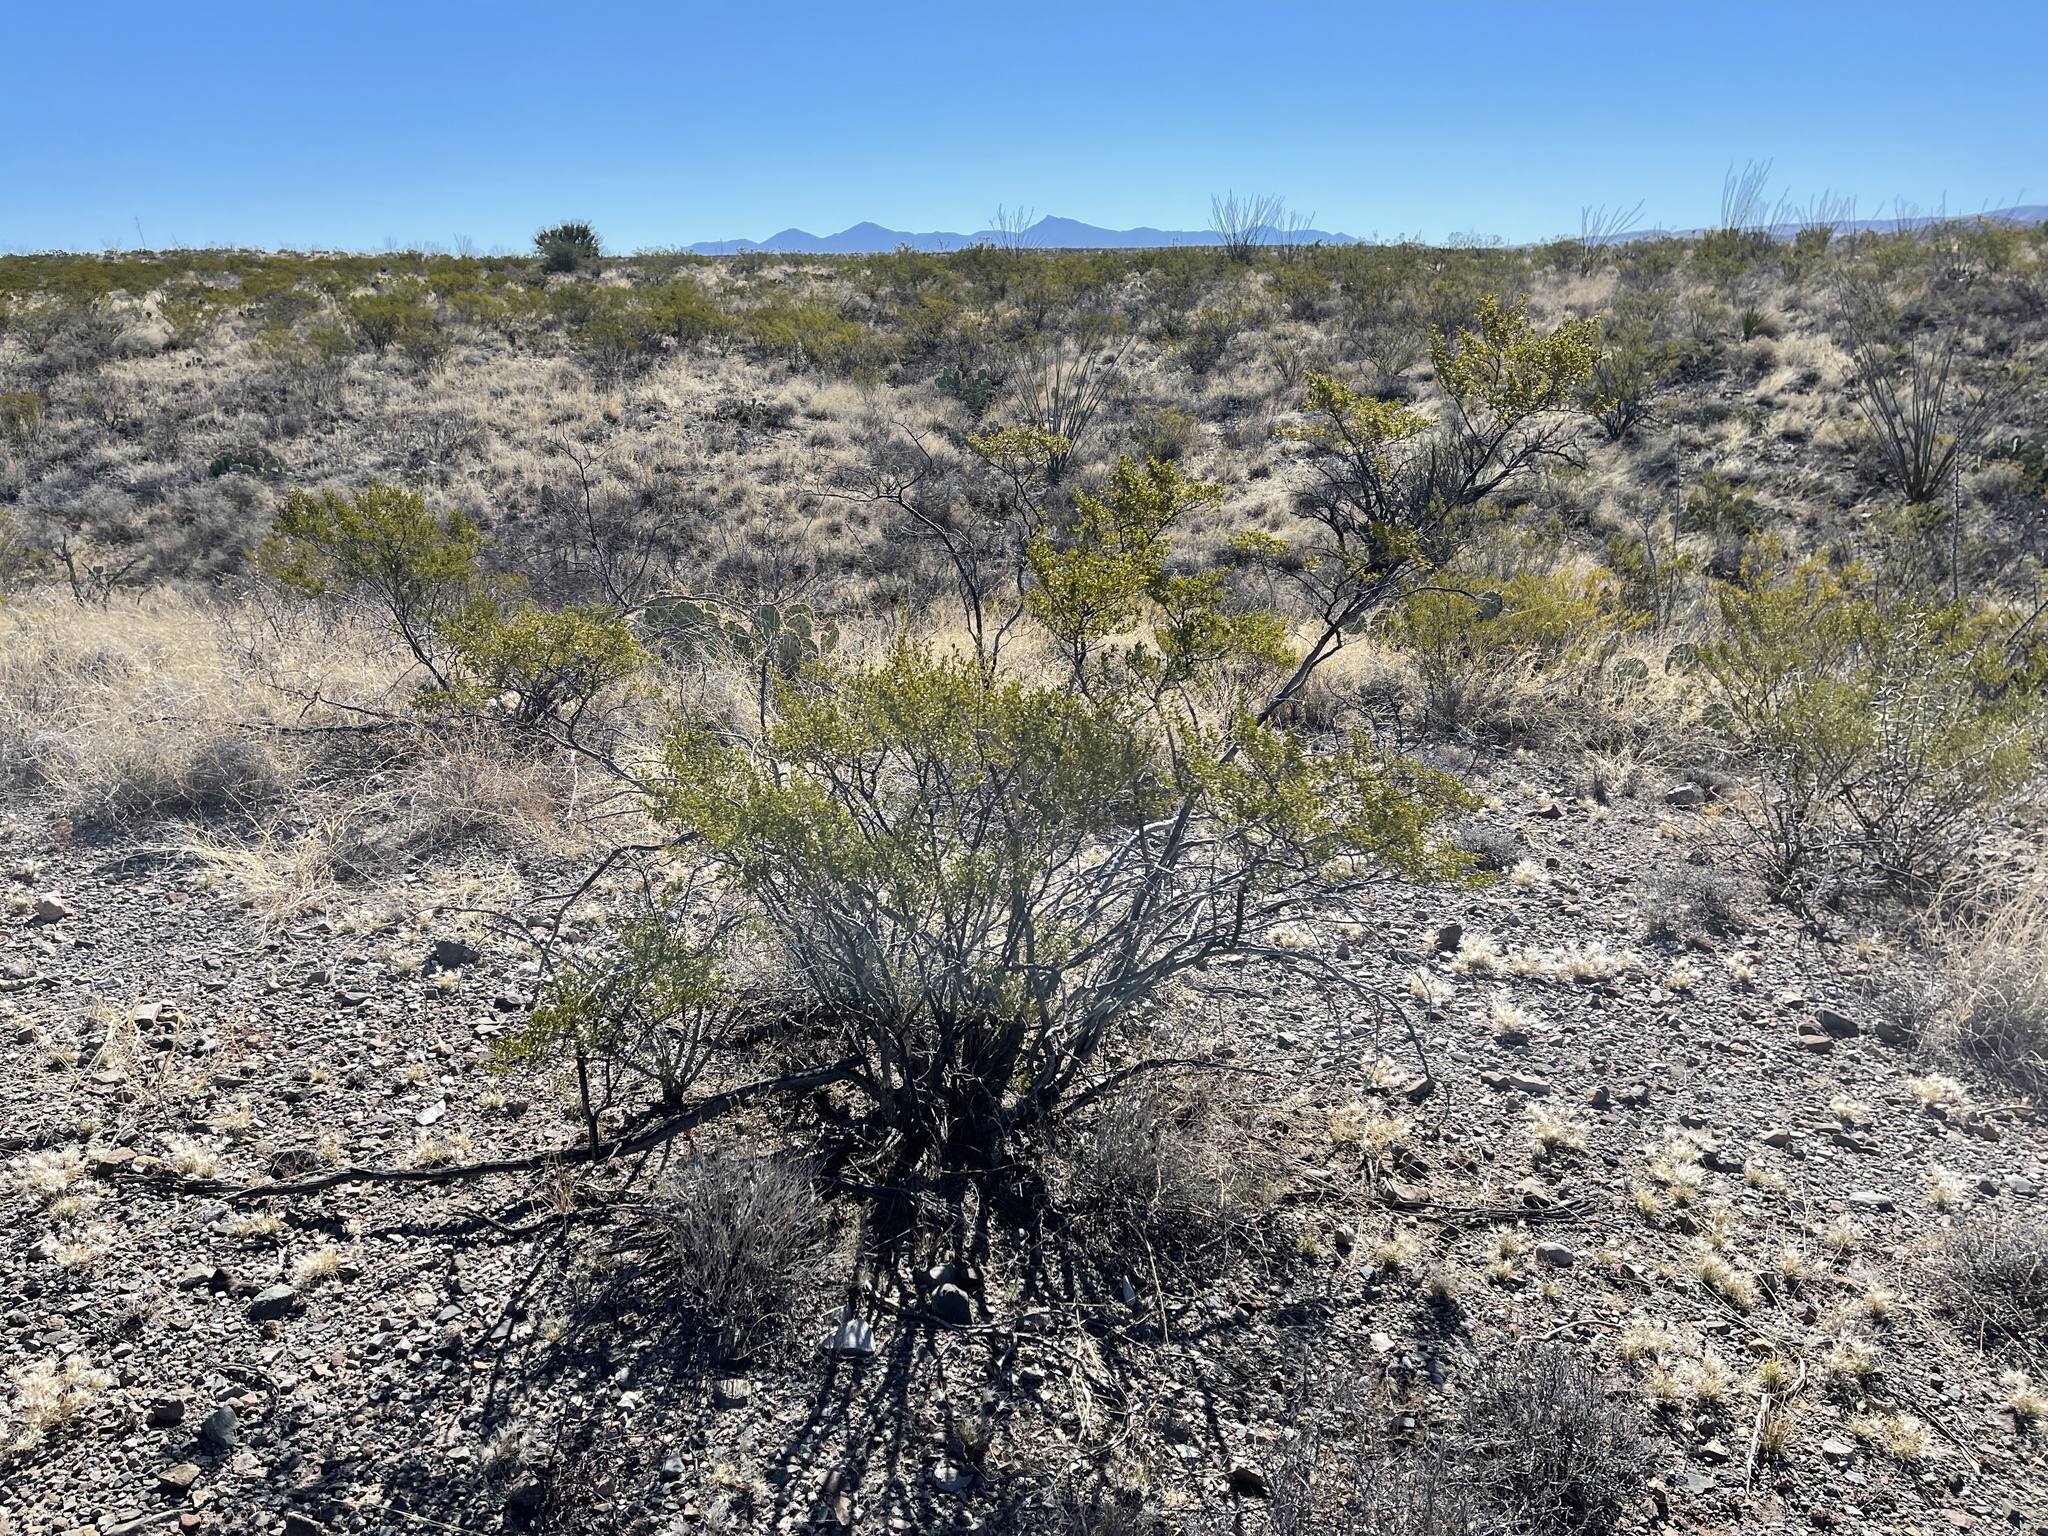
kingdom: Plantae
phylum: Tracheophyta
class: Magnoliopsida
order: Zygophyllales
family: Zygophyllaceae
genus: Larrea
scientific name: Larrea tridentata
